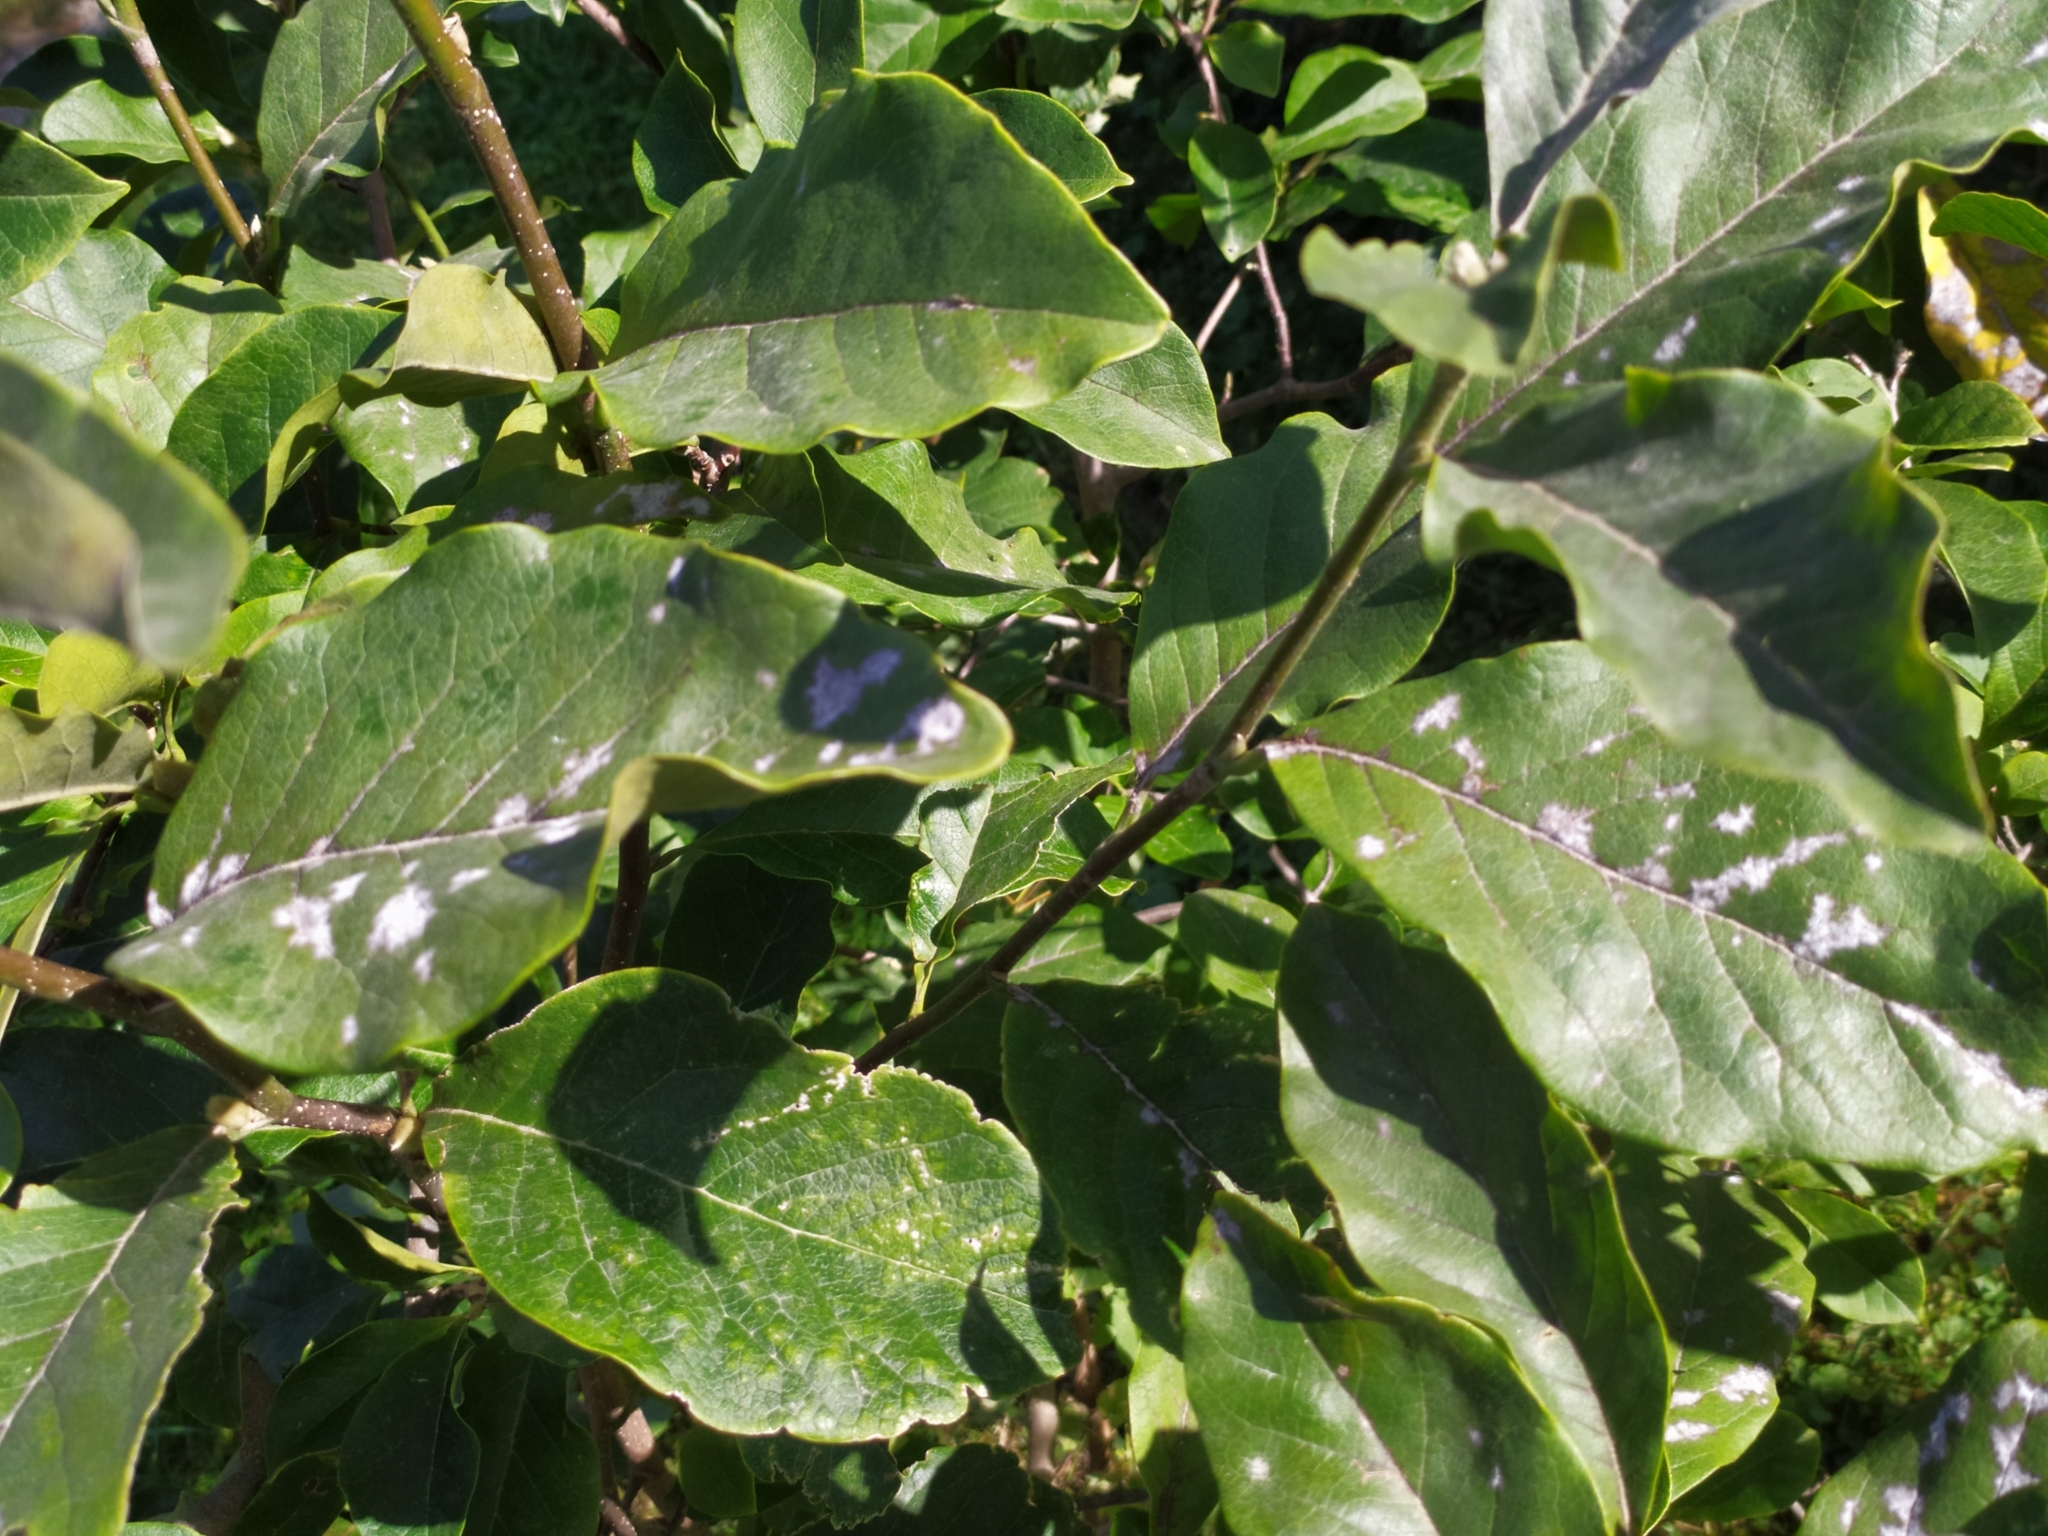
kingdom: Fungi
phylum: Ascomycota
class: Leotiomycetes
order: Helotiales
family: Erysiphaceae
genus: Erysiphe
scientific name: Erysiphe magnifica
